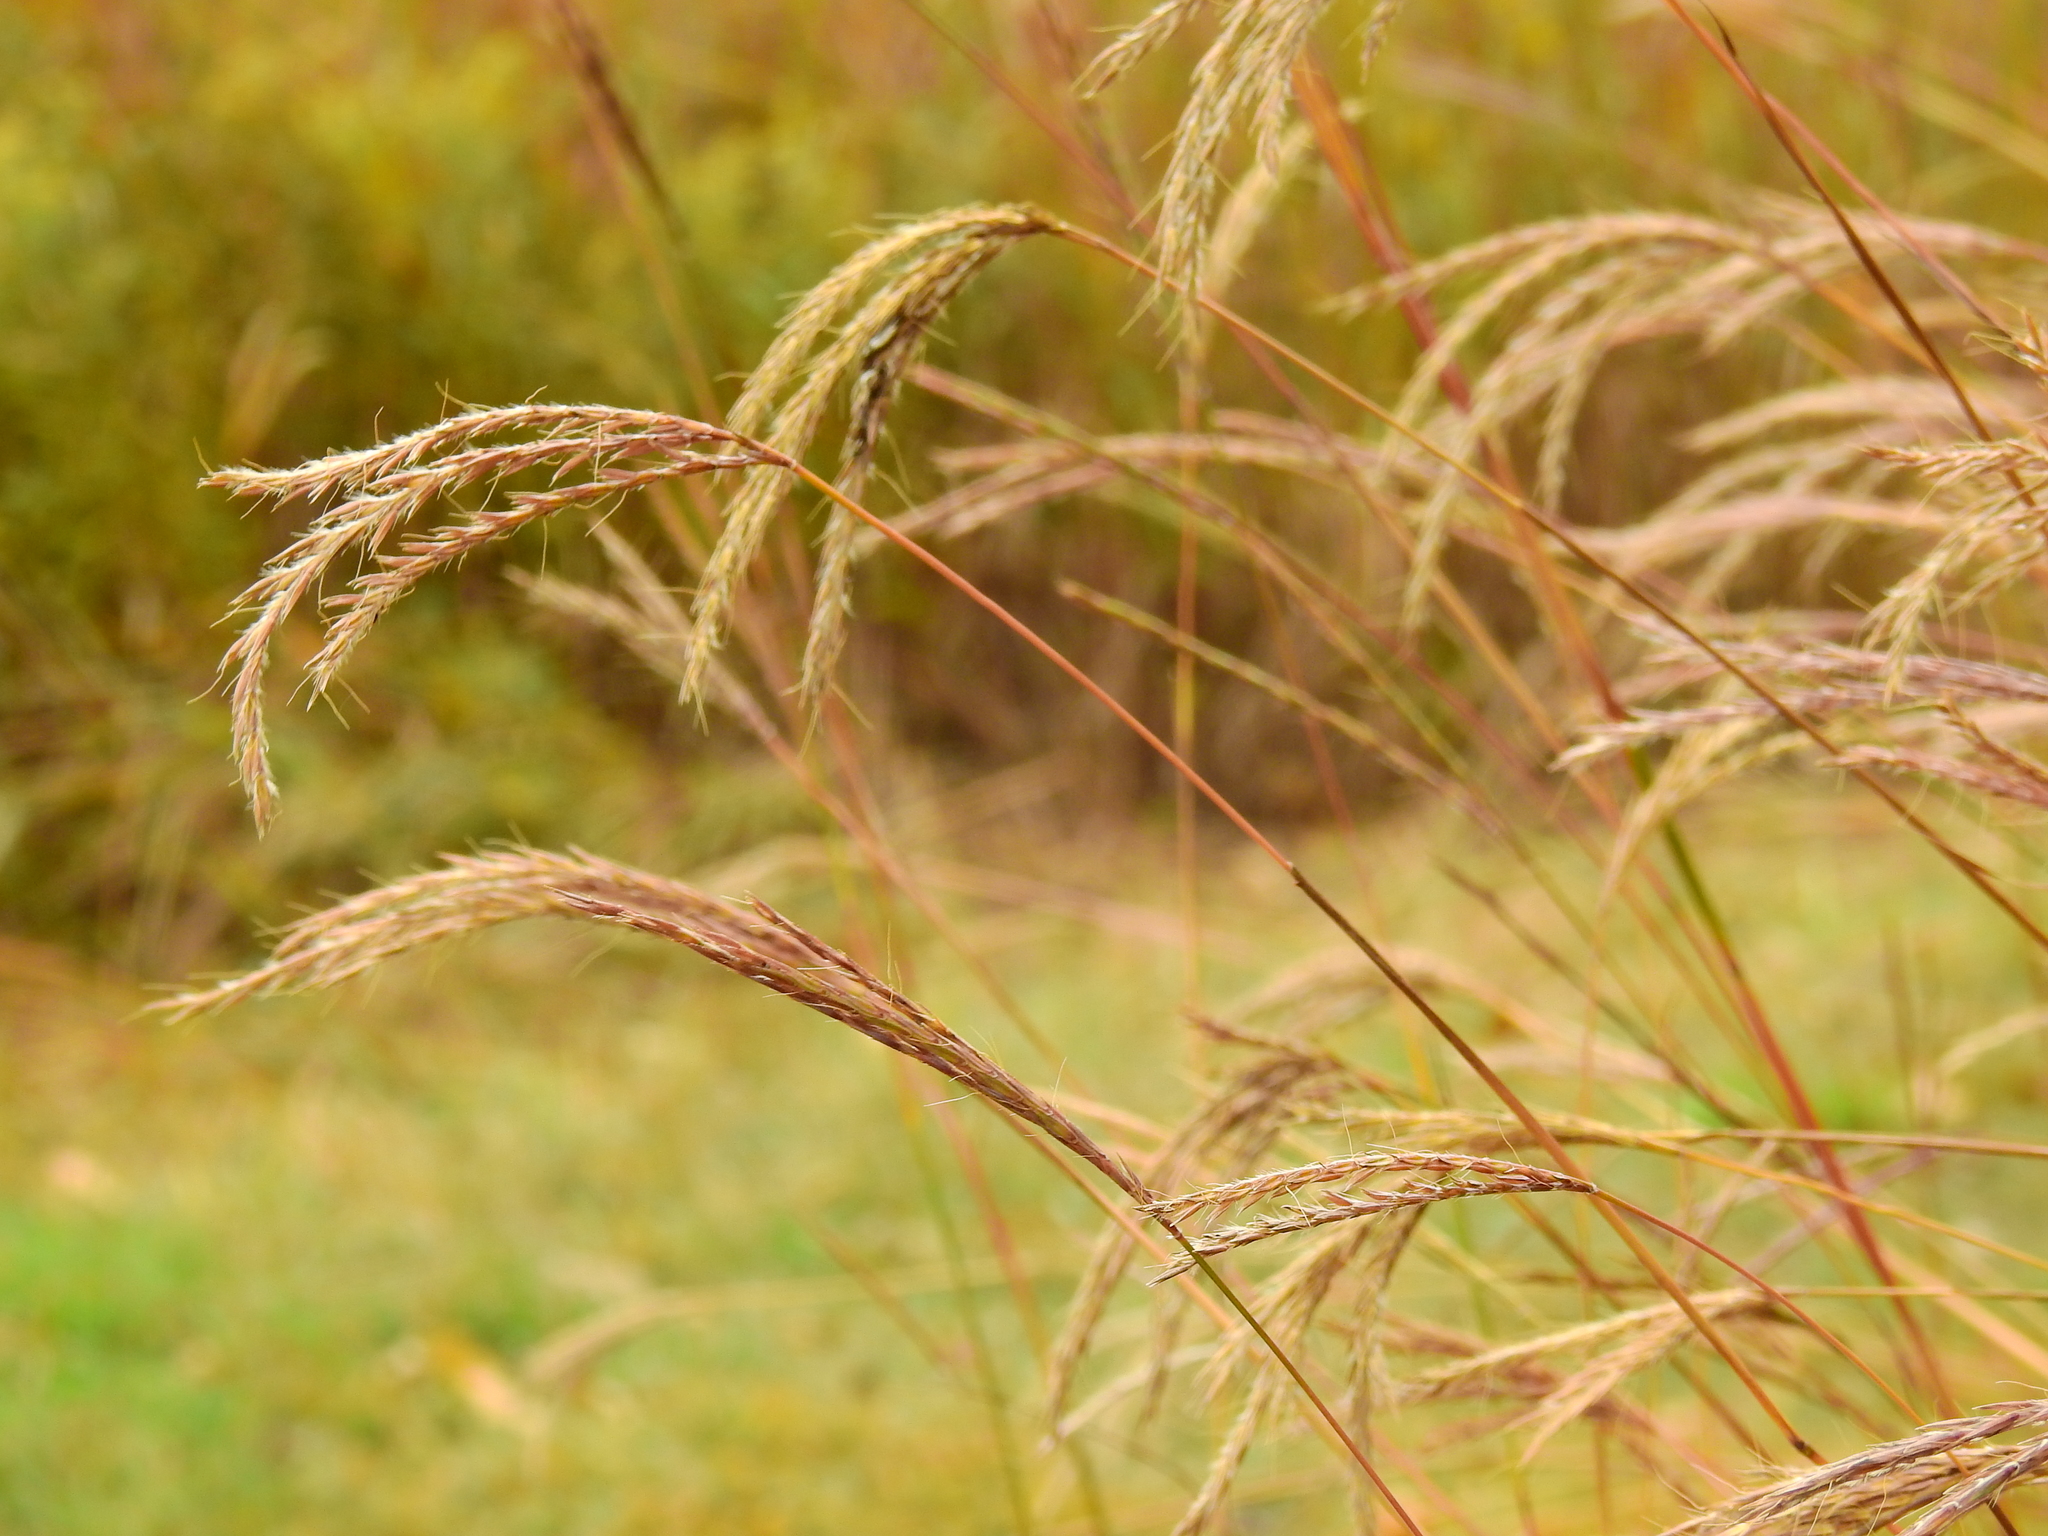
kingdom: Plantae
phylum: Tracheophyta
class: Liliopsida
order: Poales
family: Poaceae
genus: Andropogon
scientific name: Andropogon gerardi
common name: Big bluestem
